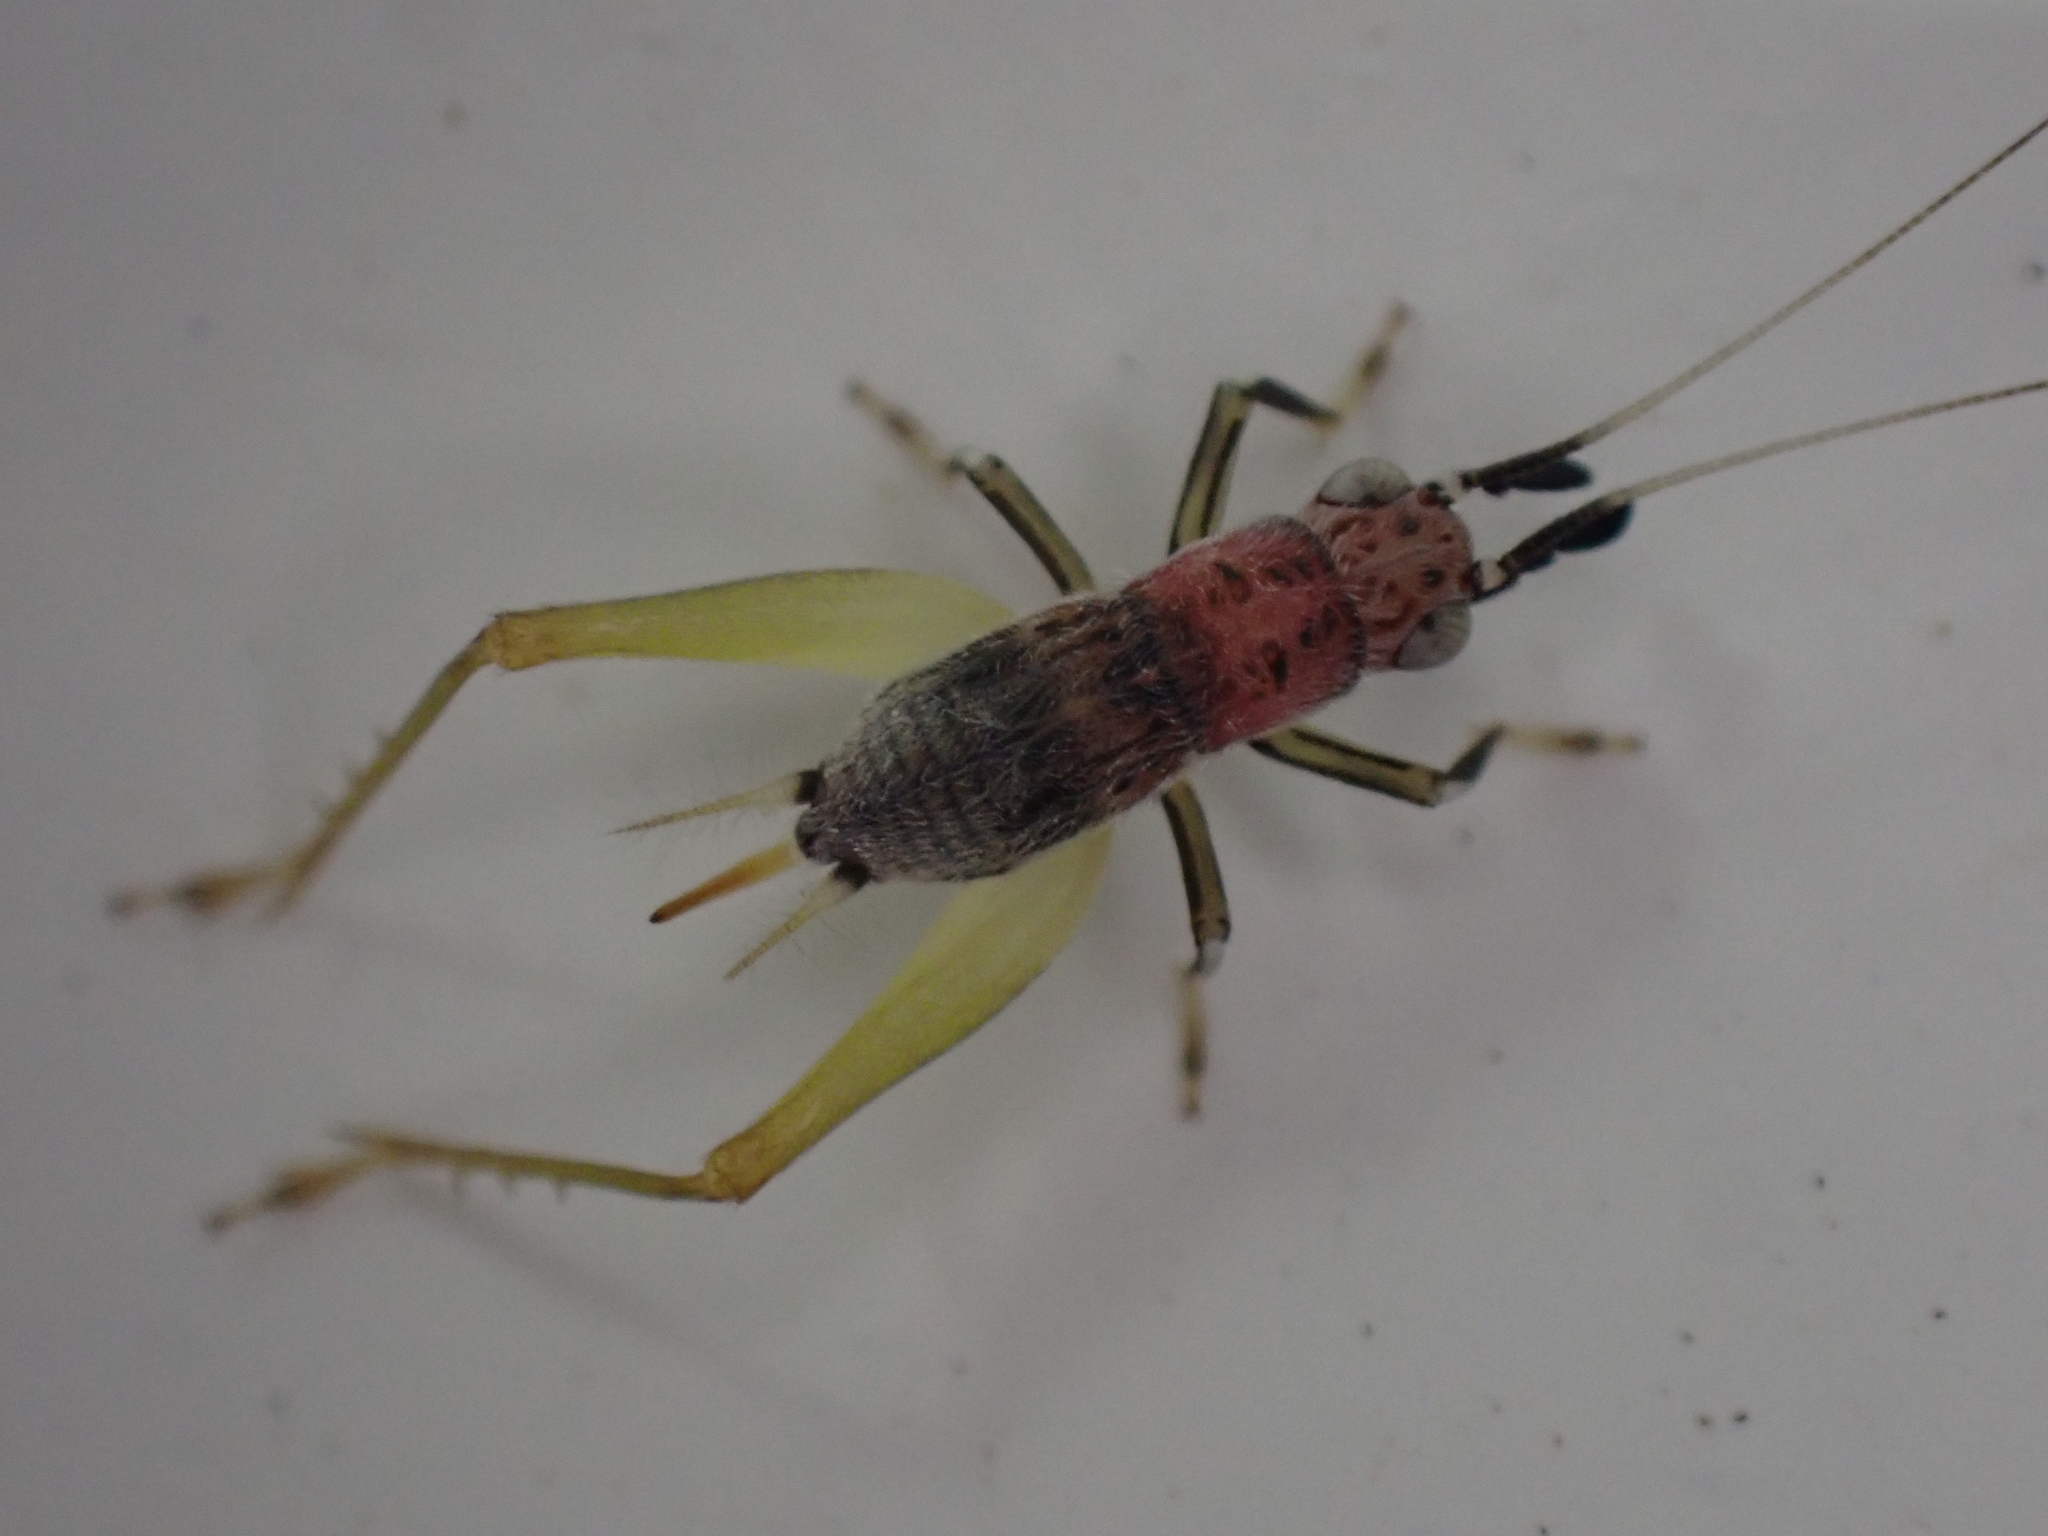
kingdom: Animalia
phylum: Arthropoda
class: Insecta
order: Orthoptera
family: Trigonidiidae
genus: Phyllopalpus
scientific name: Phyllopalpus pulchellus
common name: Handsome trig
